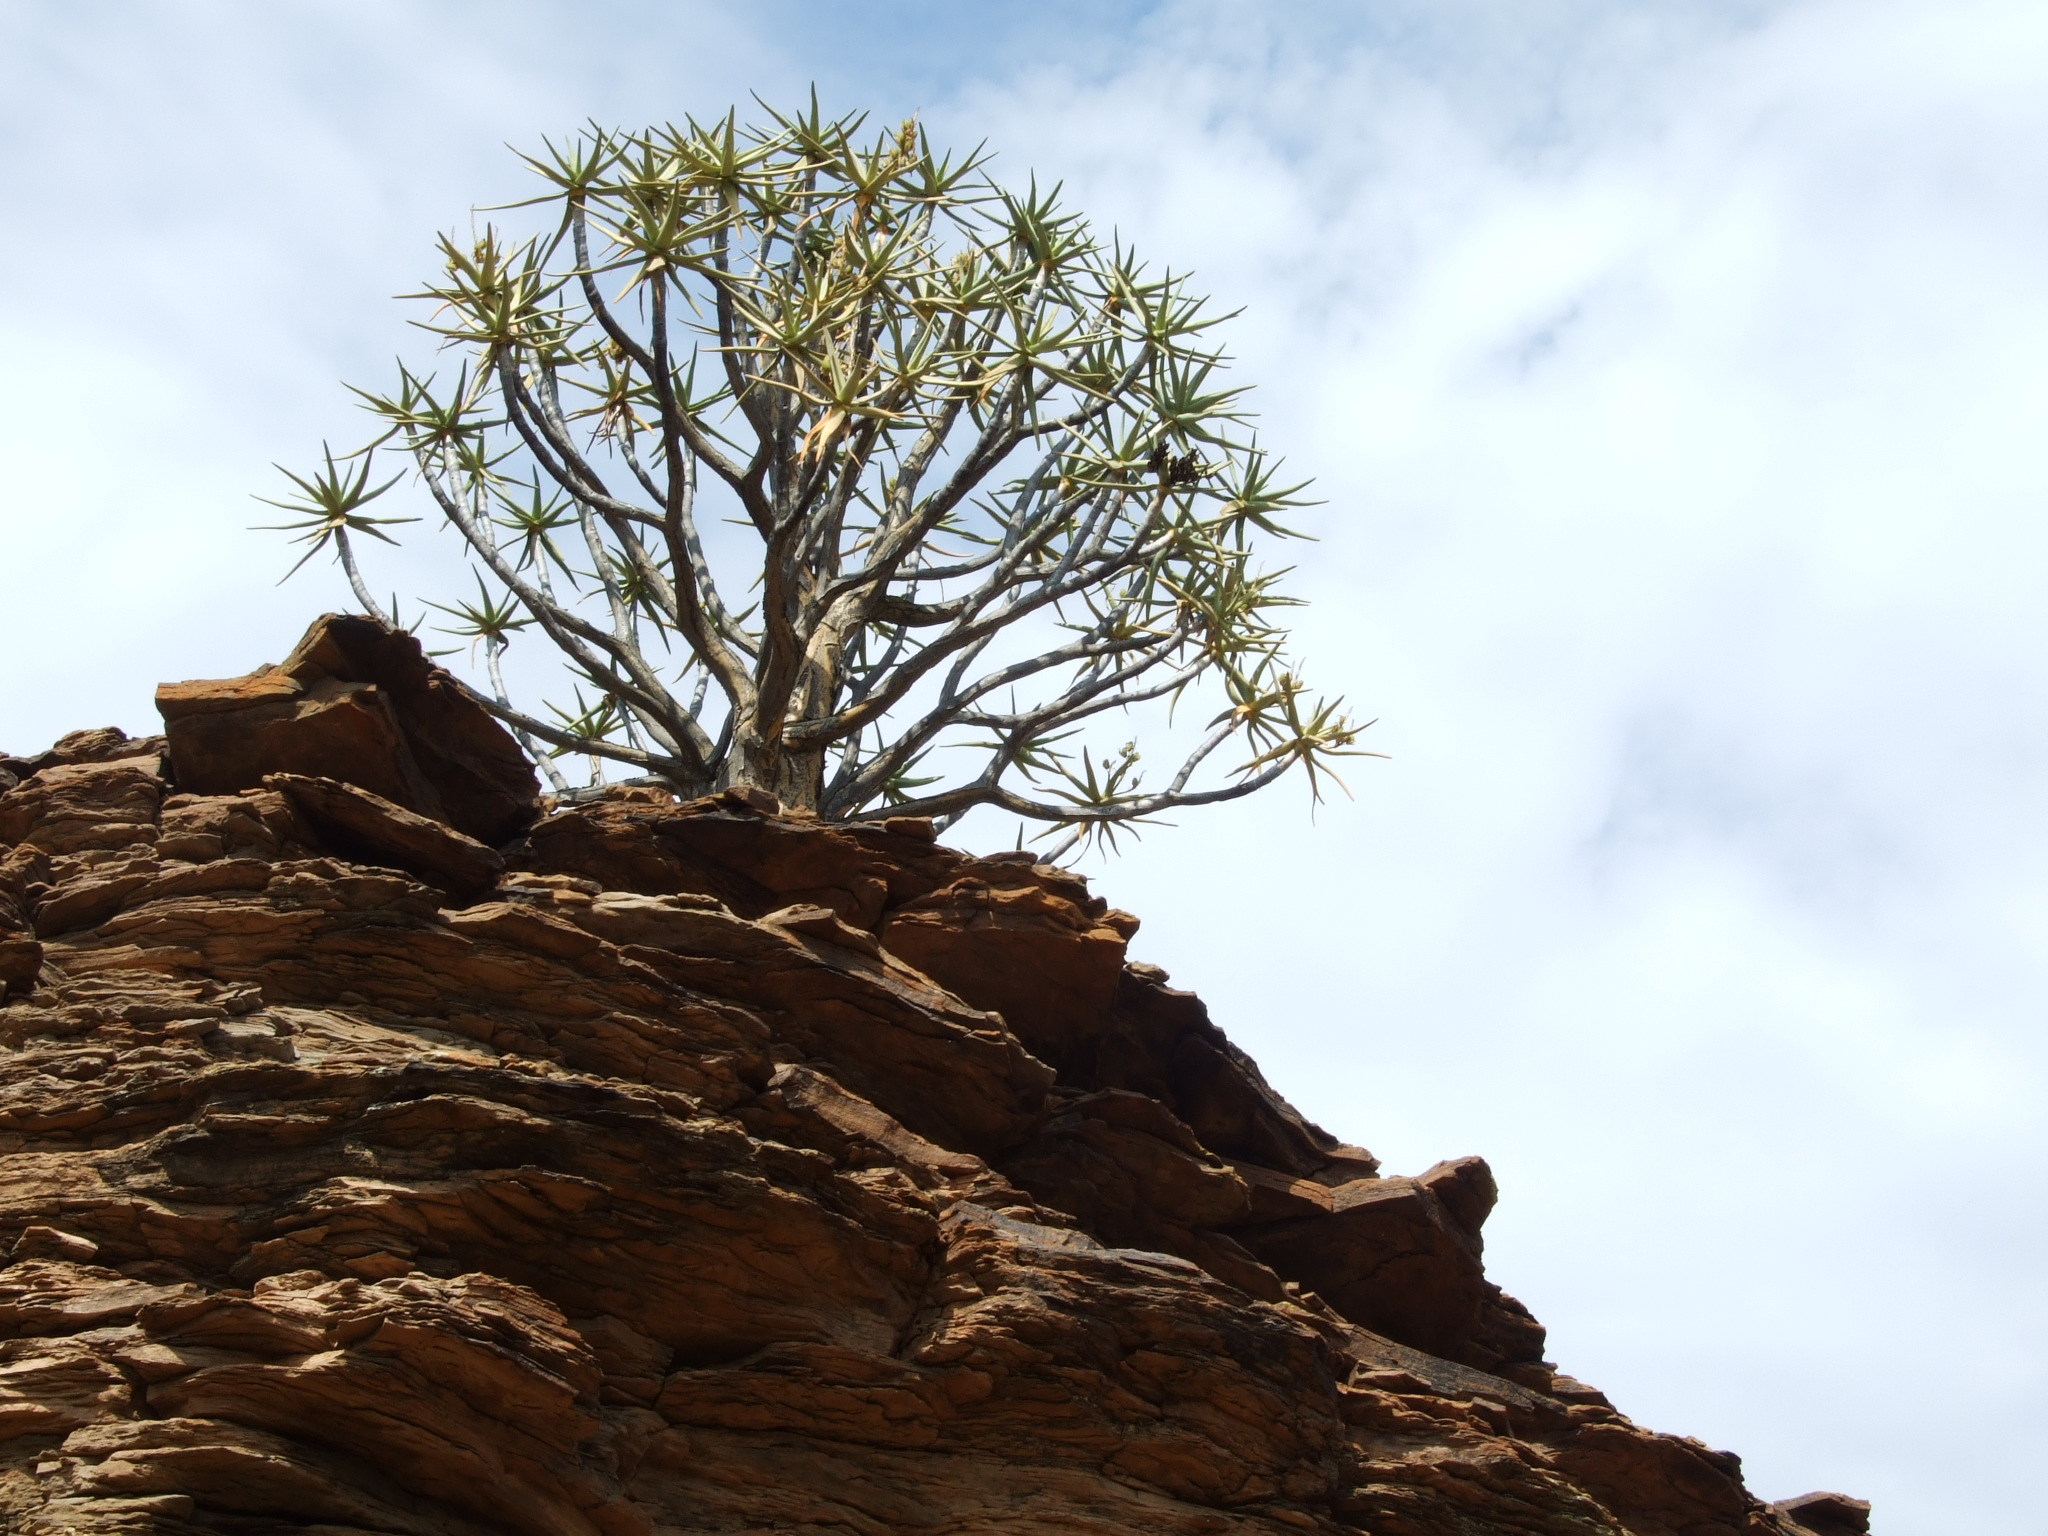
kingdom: Plantae
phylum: Tracheophyta
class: Liliopsida
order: Asparagales
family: Asphodelaceae
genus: Aloidendron
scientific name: Aloidendron dichotomum
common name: Quiver tree
